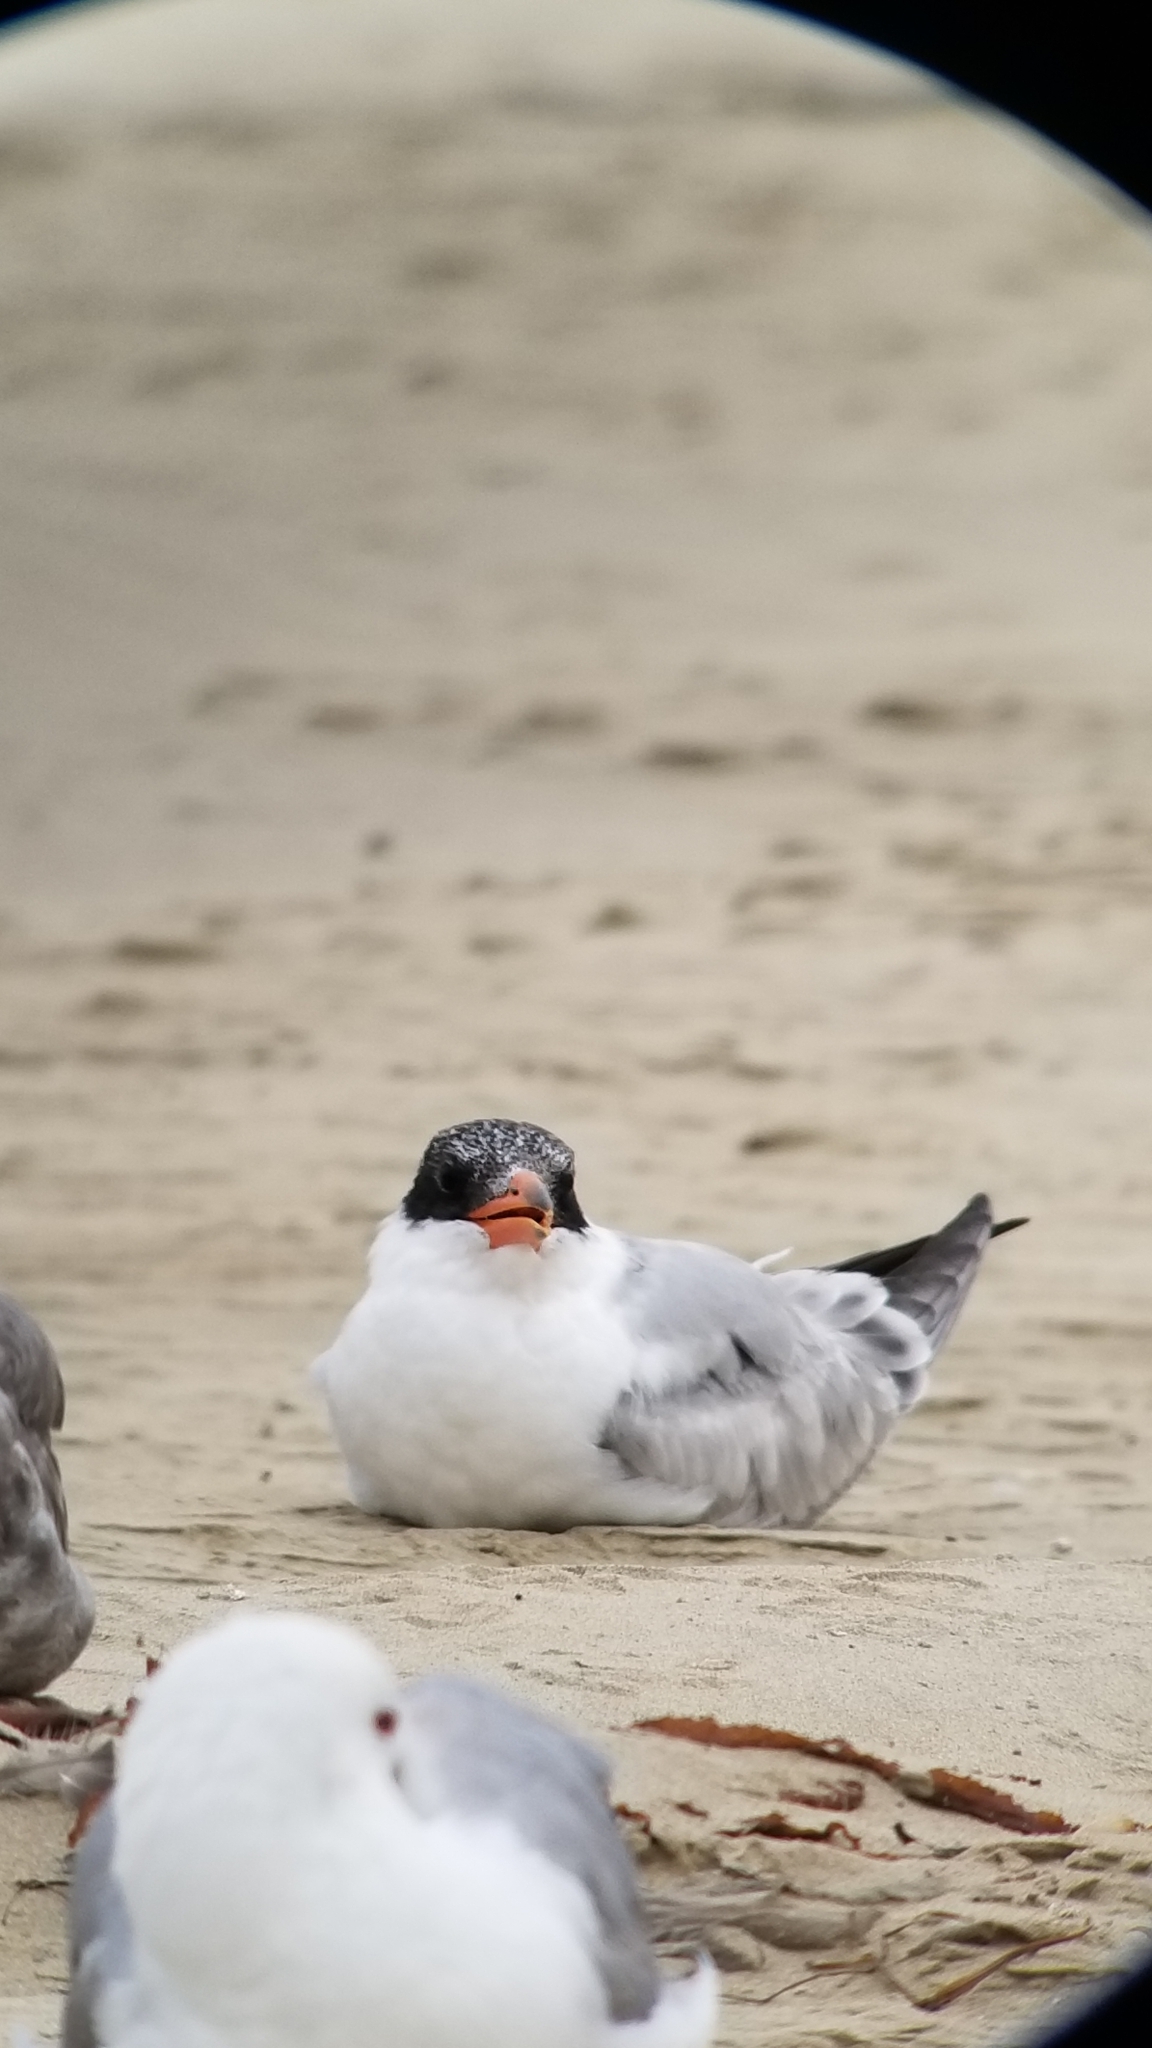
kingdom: Animalia
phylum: Chordata
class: Aves
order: Charadriiformes
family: Laridae
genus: Hydroprogne
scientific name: Hydroprogne caspia
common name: Caspian tern
